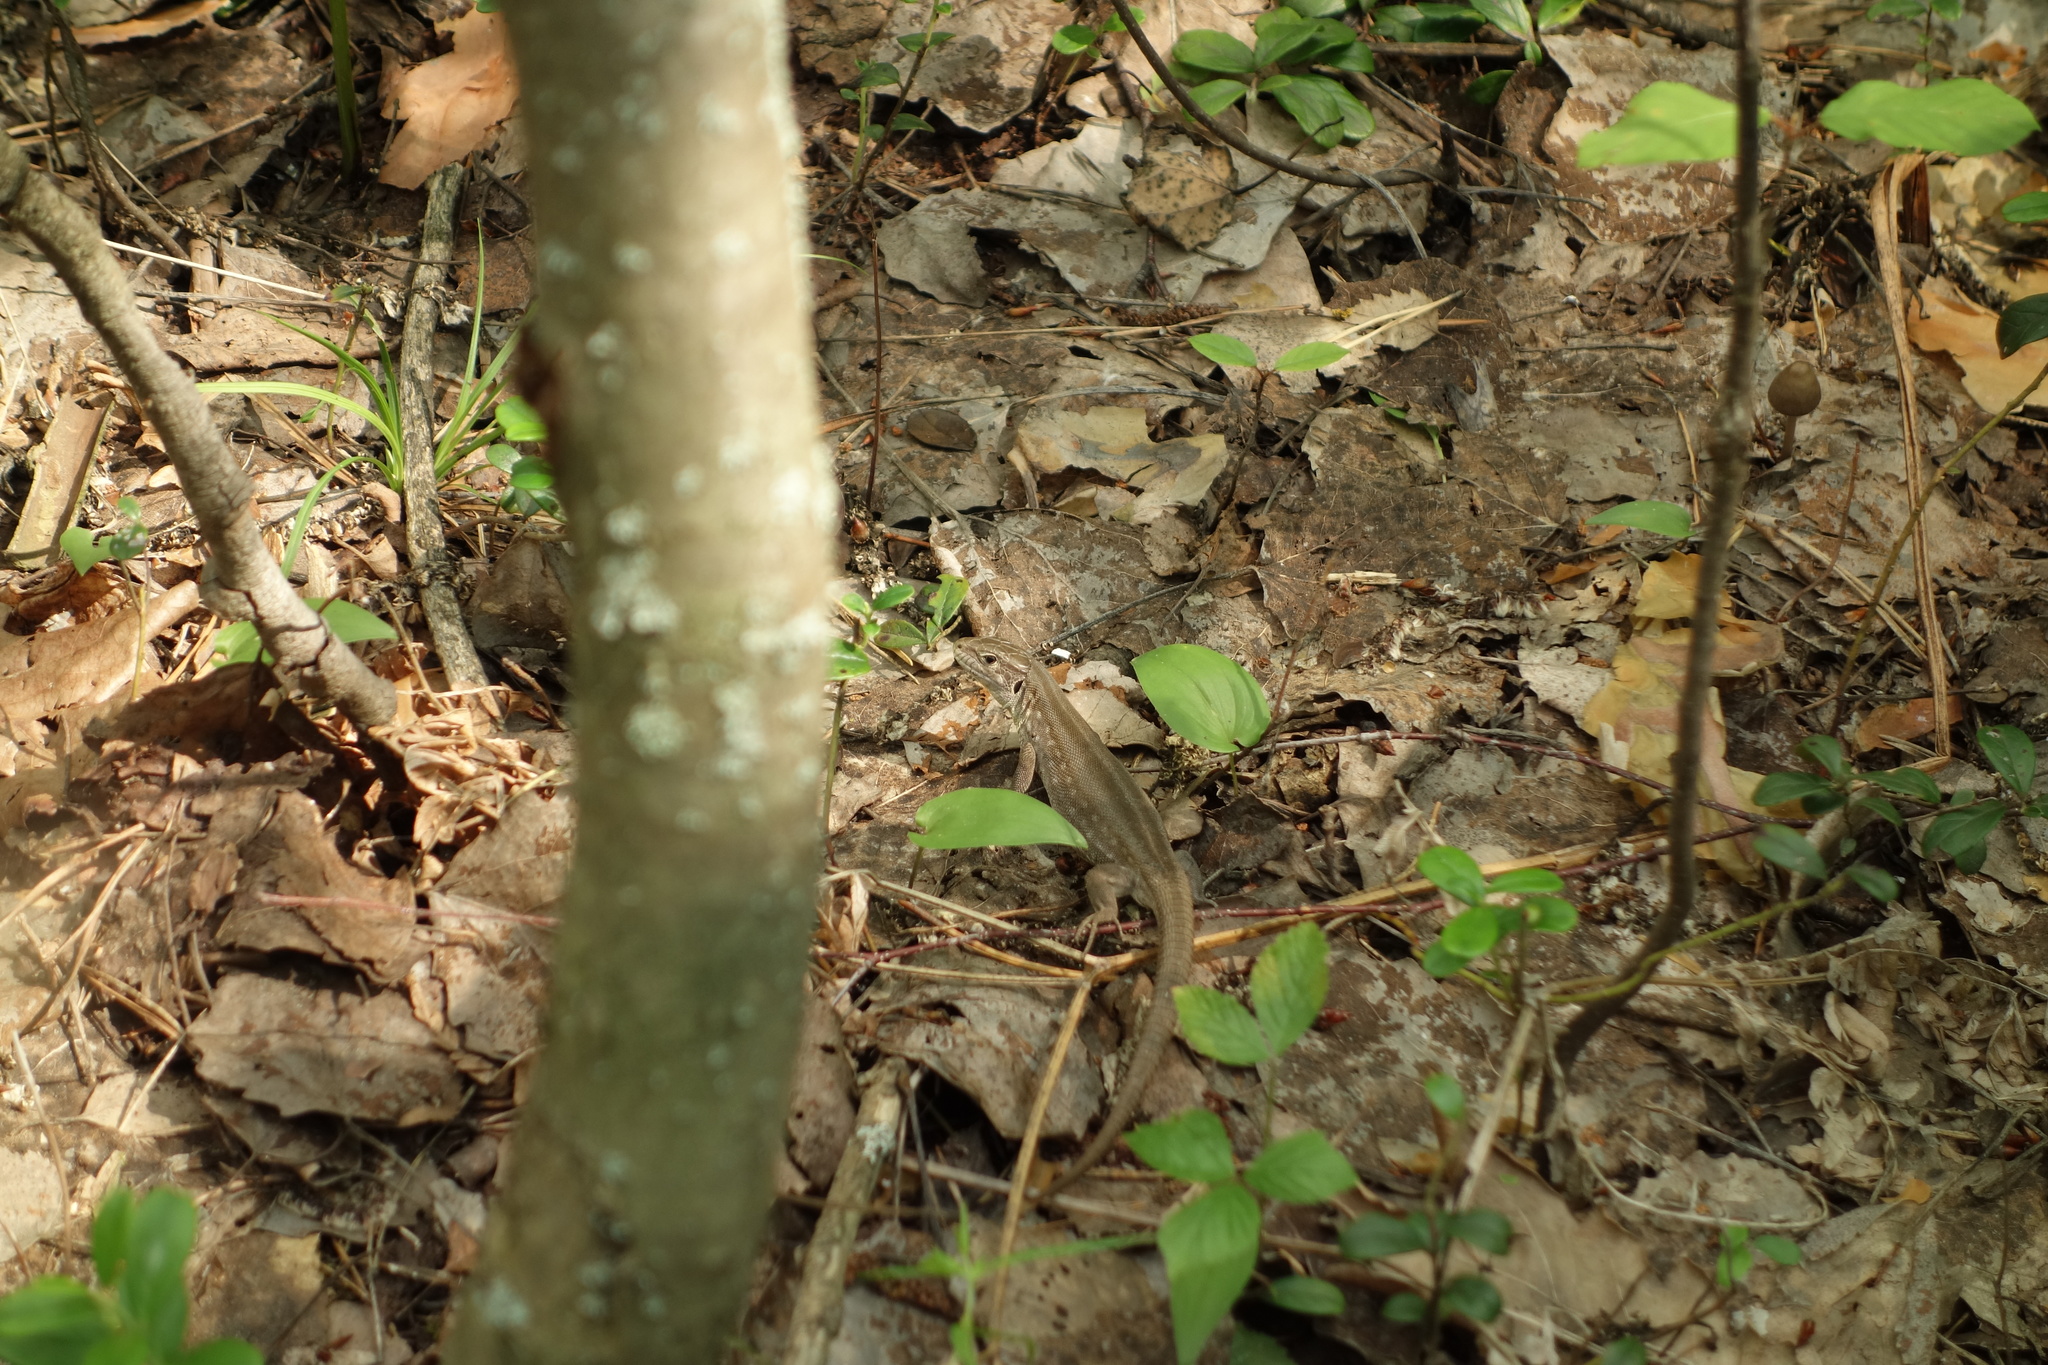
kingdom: Animalia
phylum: Chordata
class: Squamata
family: Lacertidae
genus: Lacerta
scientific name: Lacerta agilis
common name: Sand lizard
